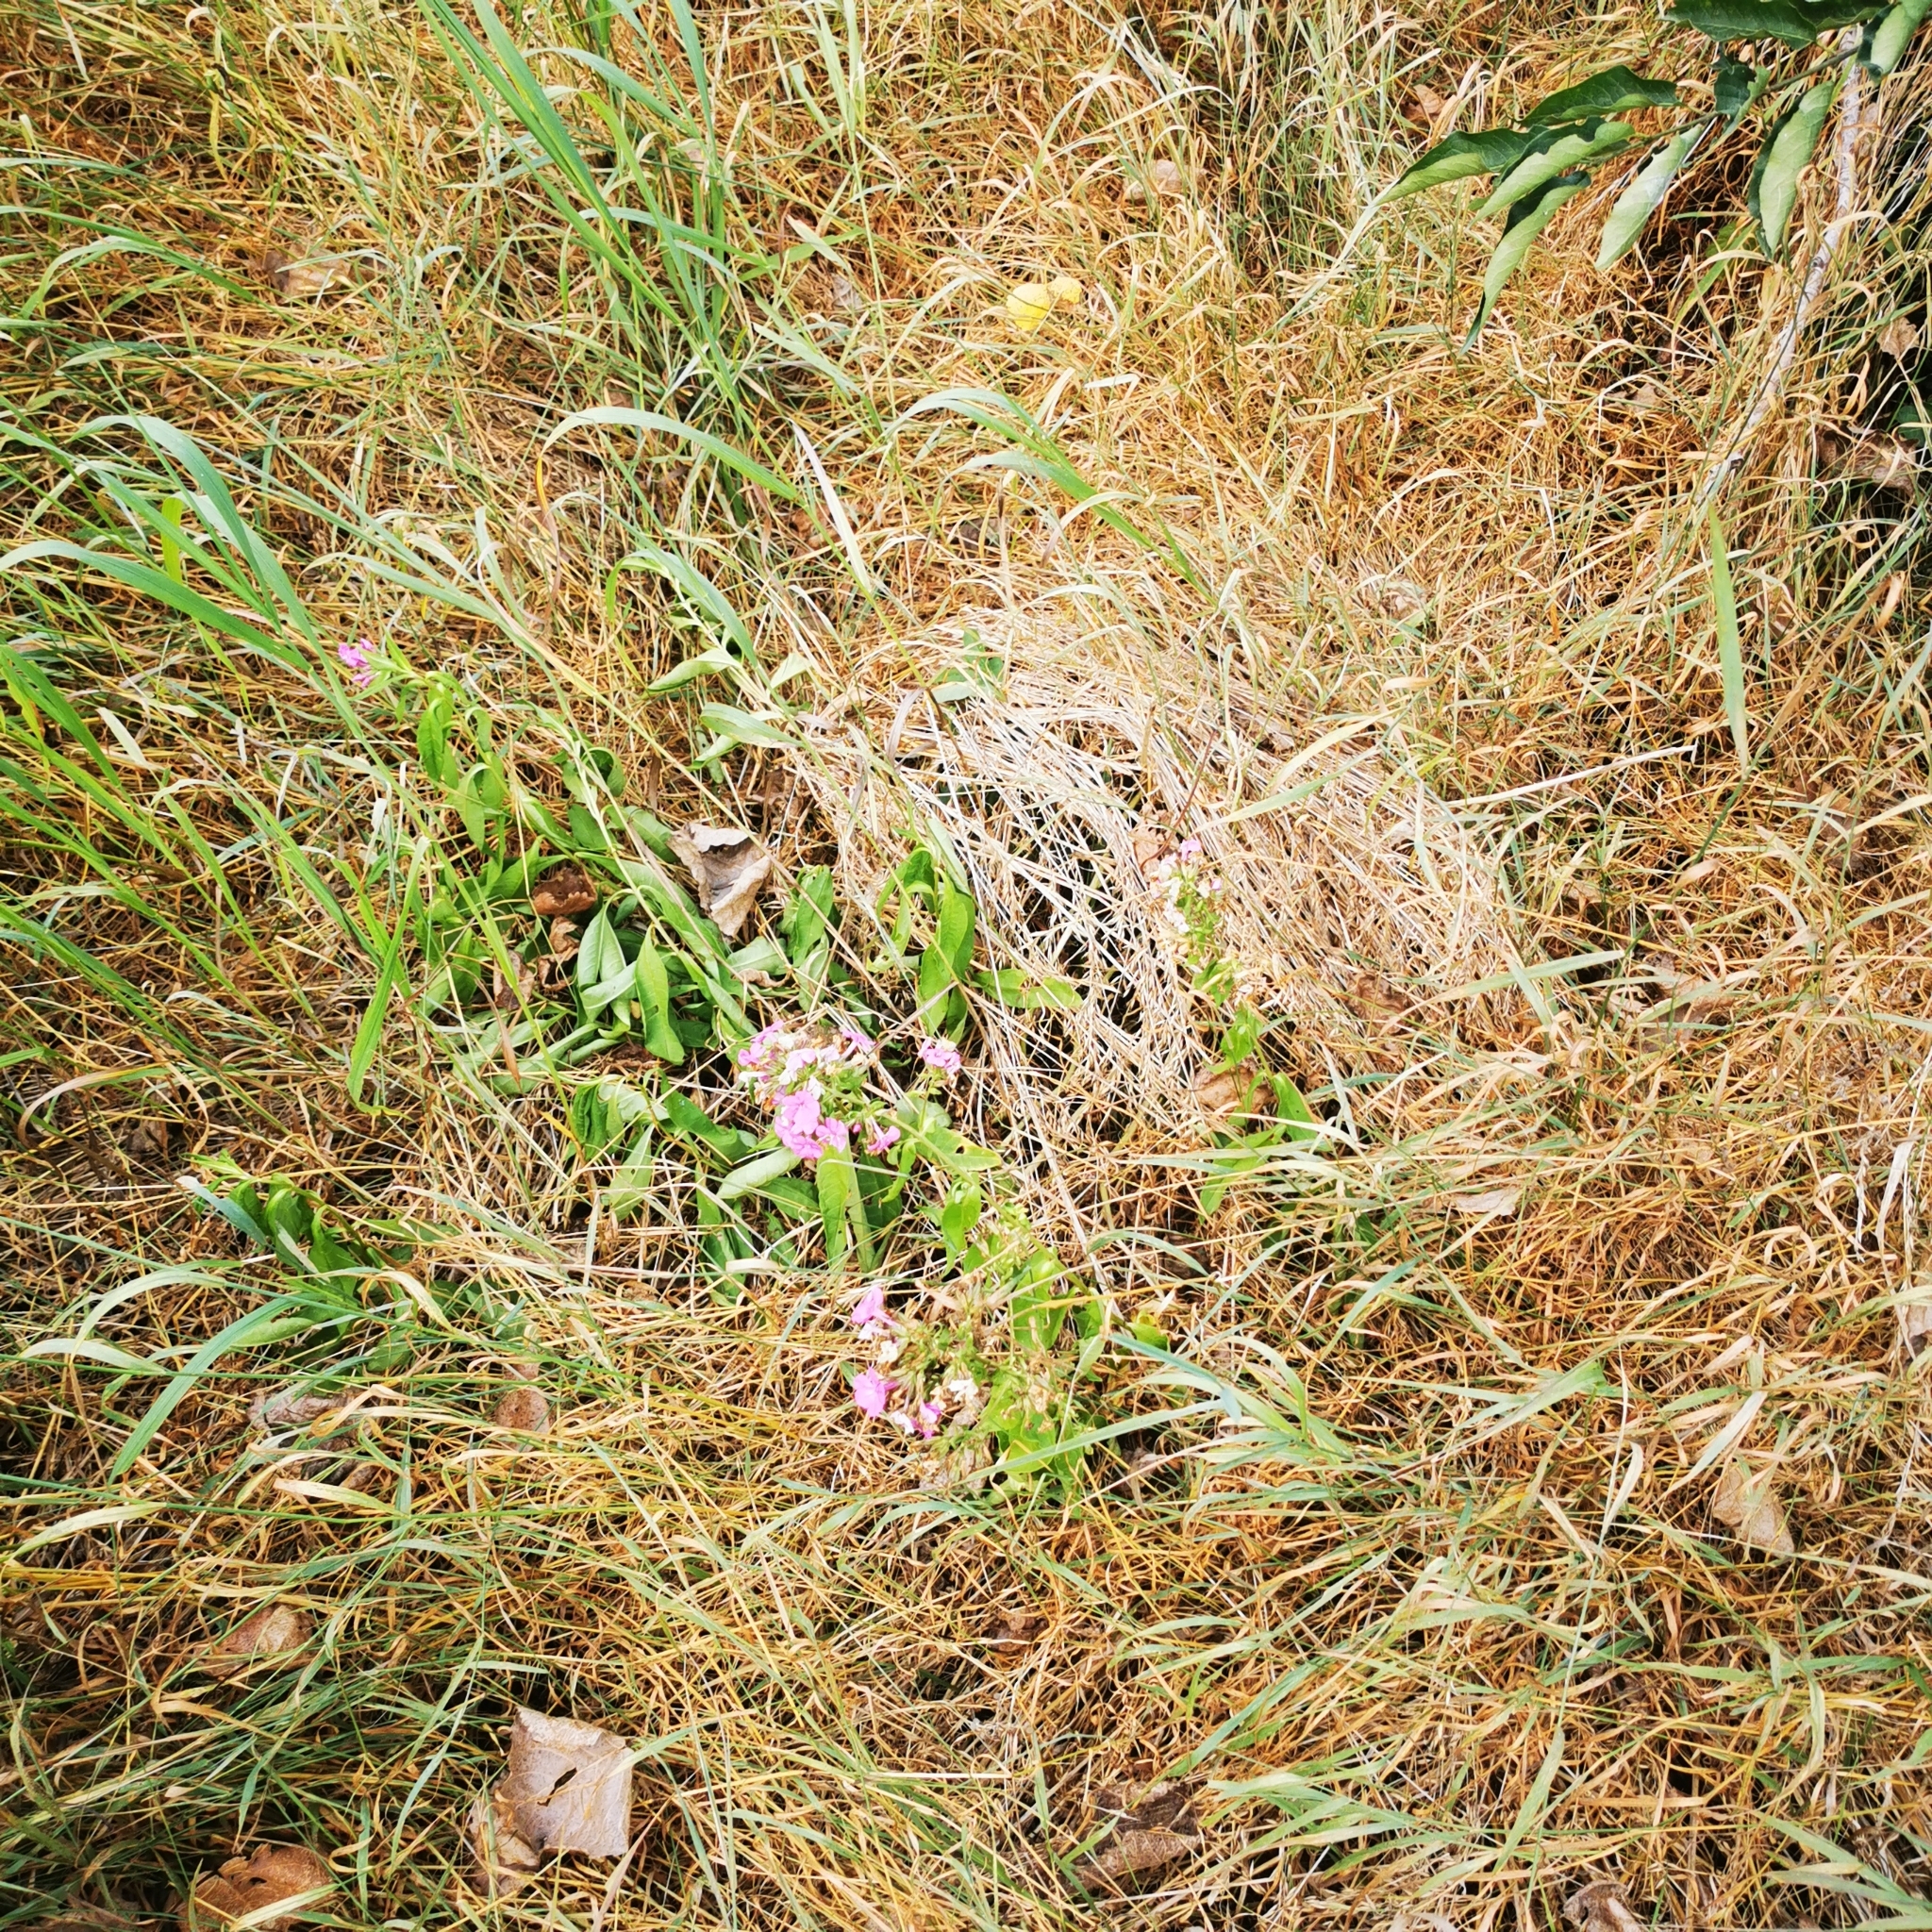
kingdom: Plantae
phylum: Tracheophyta
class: Magnoliopsida
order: Ericales
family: Polemoniaceae
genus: Phlox
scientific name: Phlox paniculata
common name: Fall phlox
